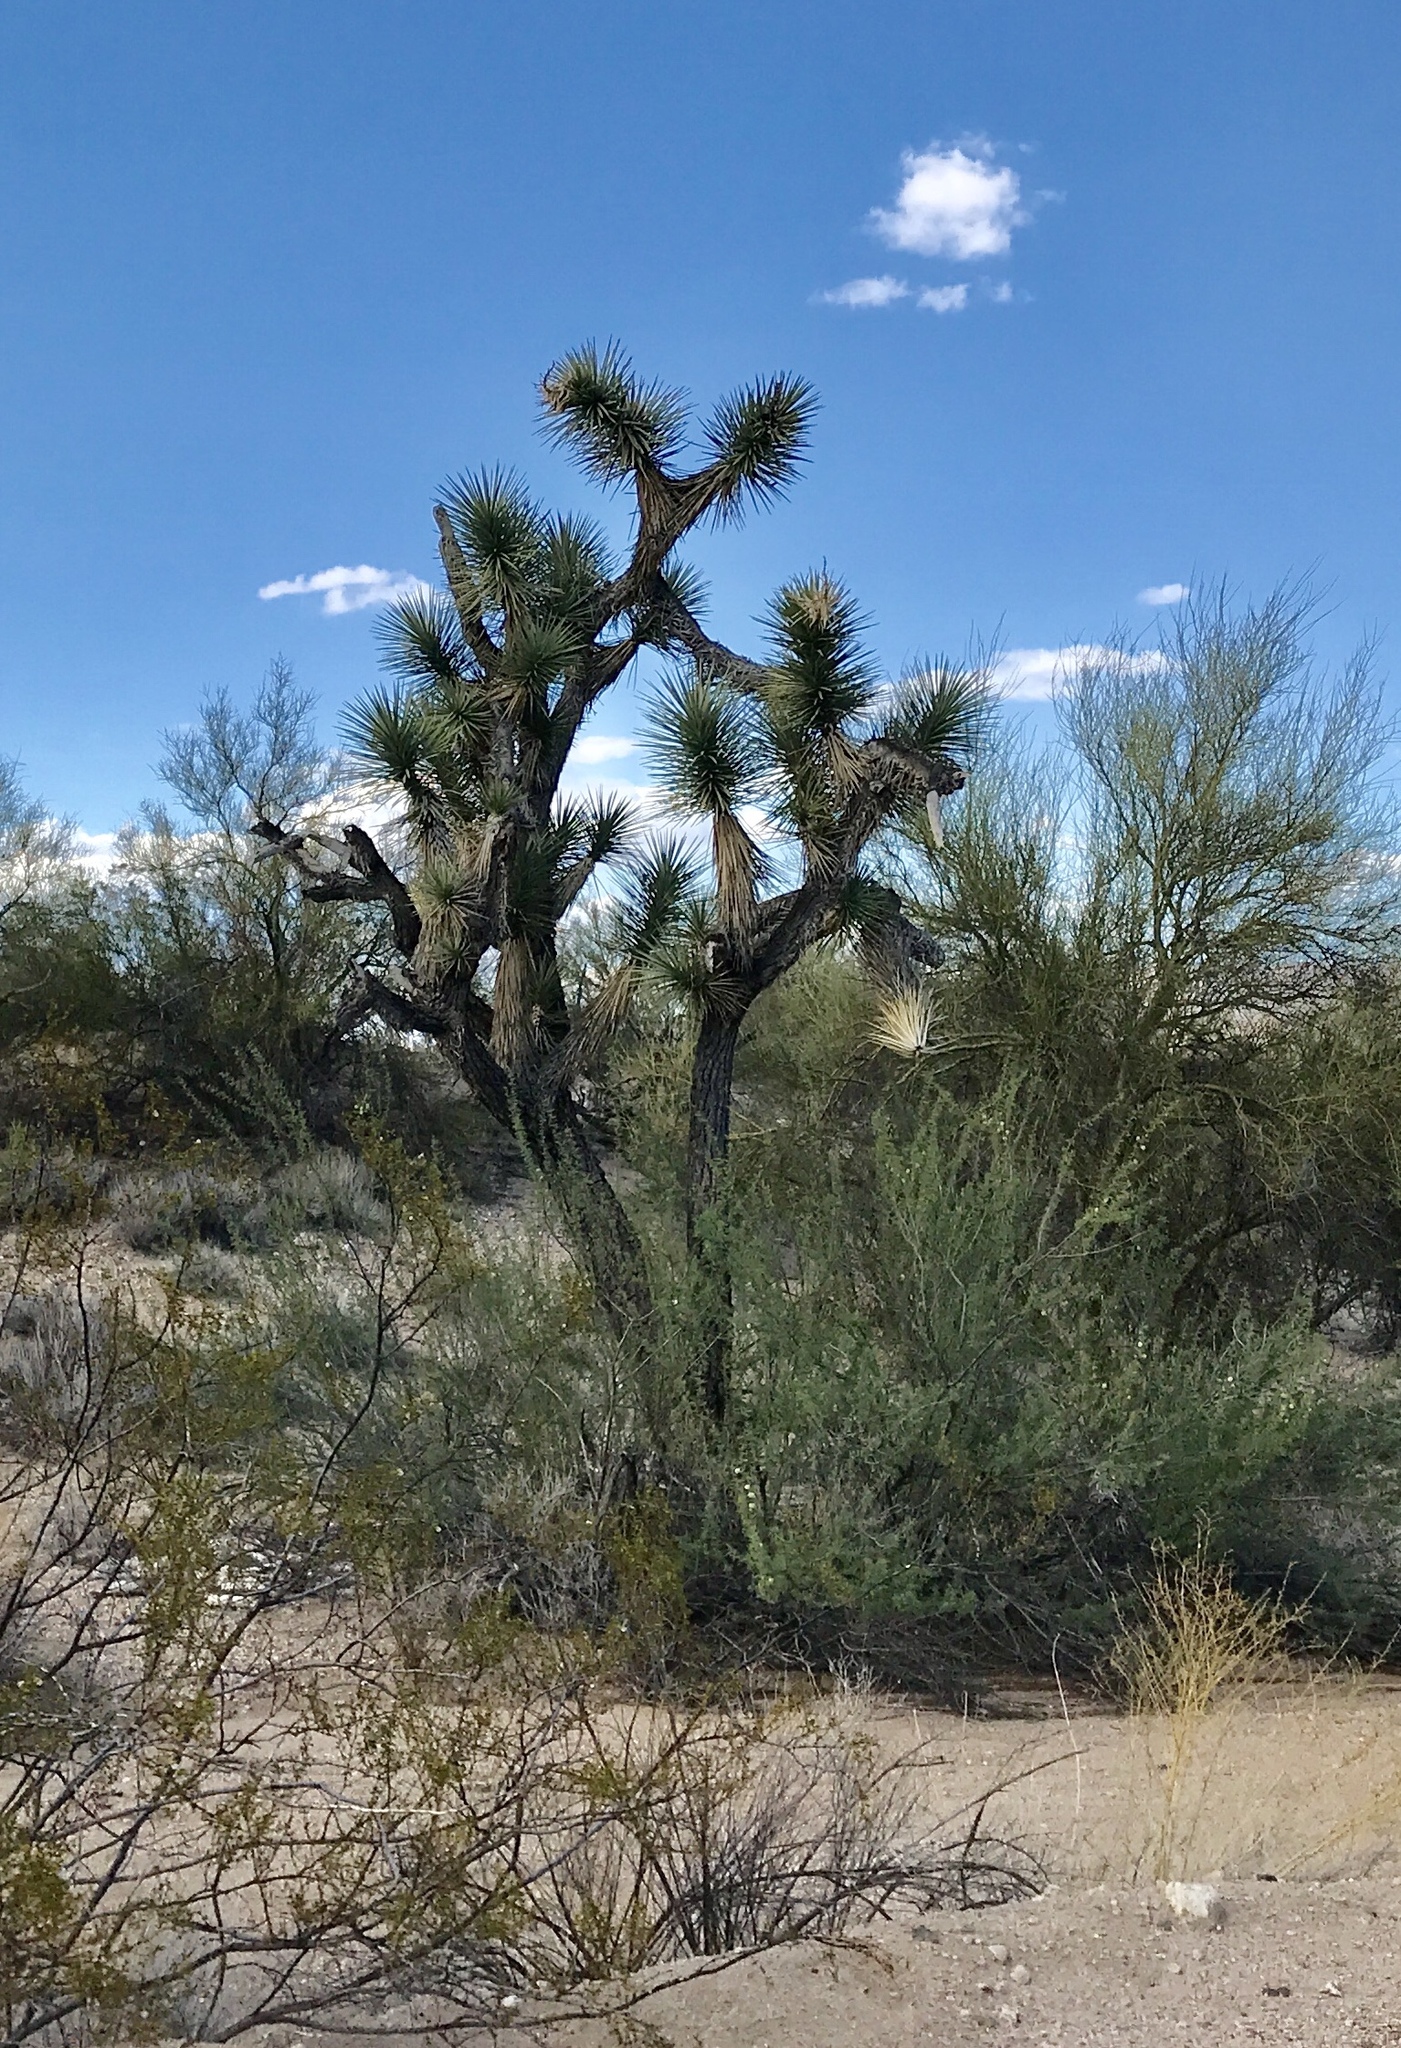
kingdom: Plantae
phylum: Tracheophyta
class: Liliopsida
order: Asparagales
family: Asparagaceae
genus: Yucca
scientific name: Yucca brevifolia
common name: Joshua tree
